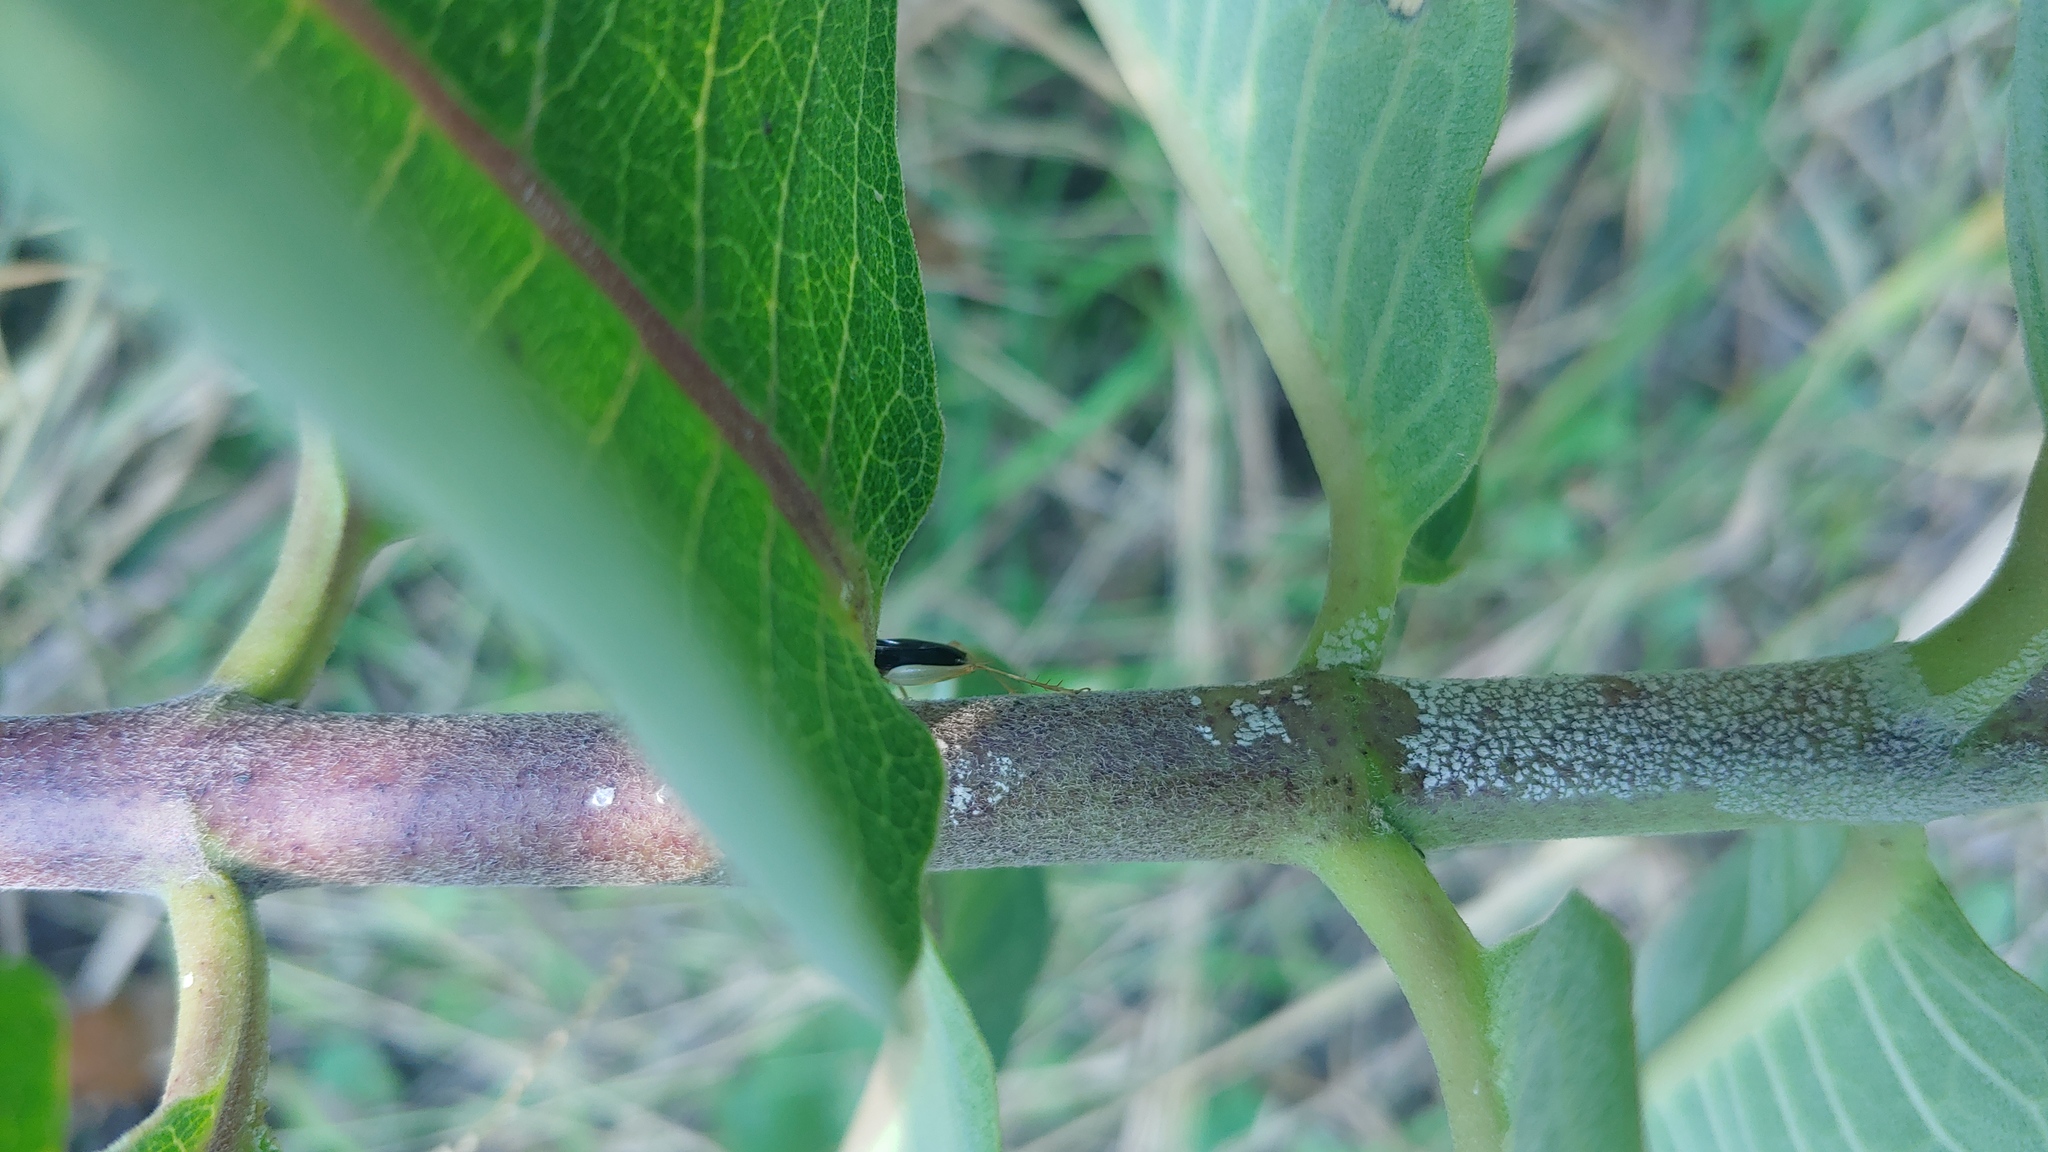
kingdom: Animalia
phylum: Arthropoda
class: Insecta
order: Orthoptera
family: Trigonidiidae
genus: Phyllopalpus
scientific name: Phyllopalpus pulchellus
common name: Handsome trig
